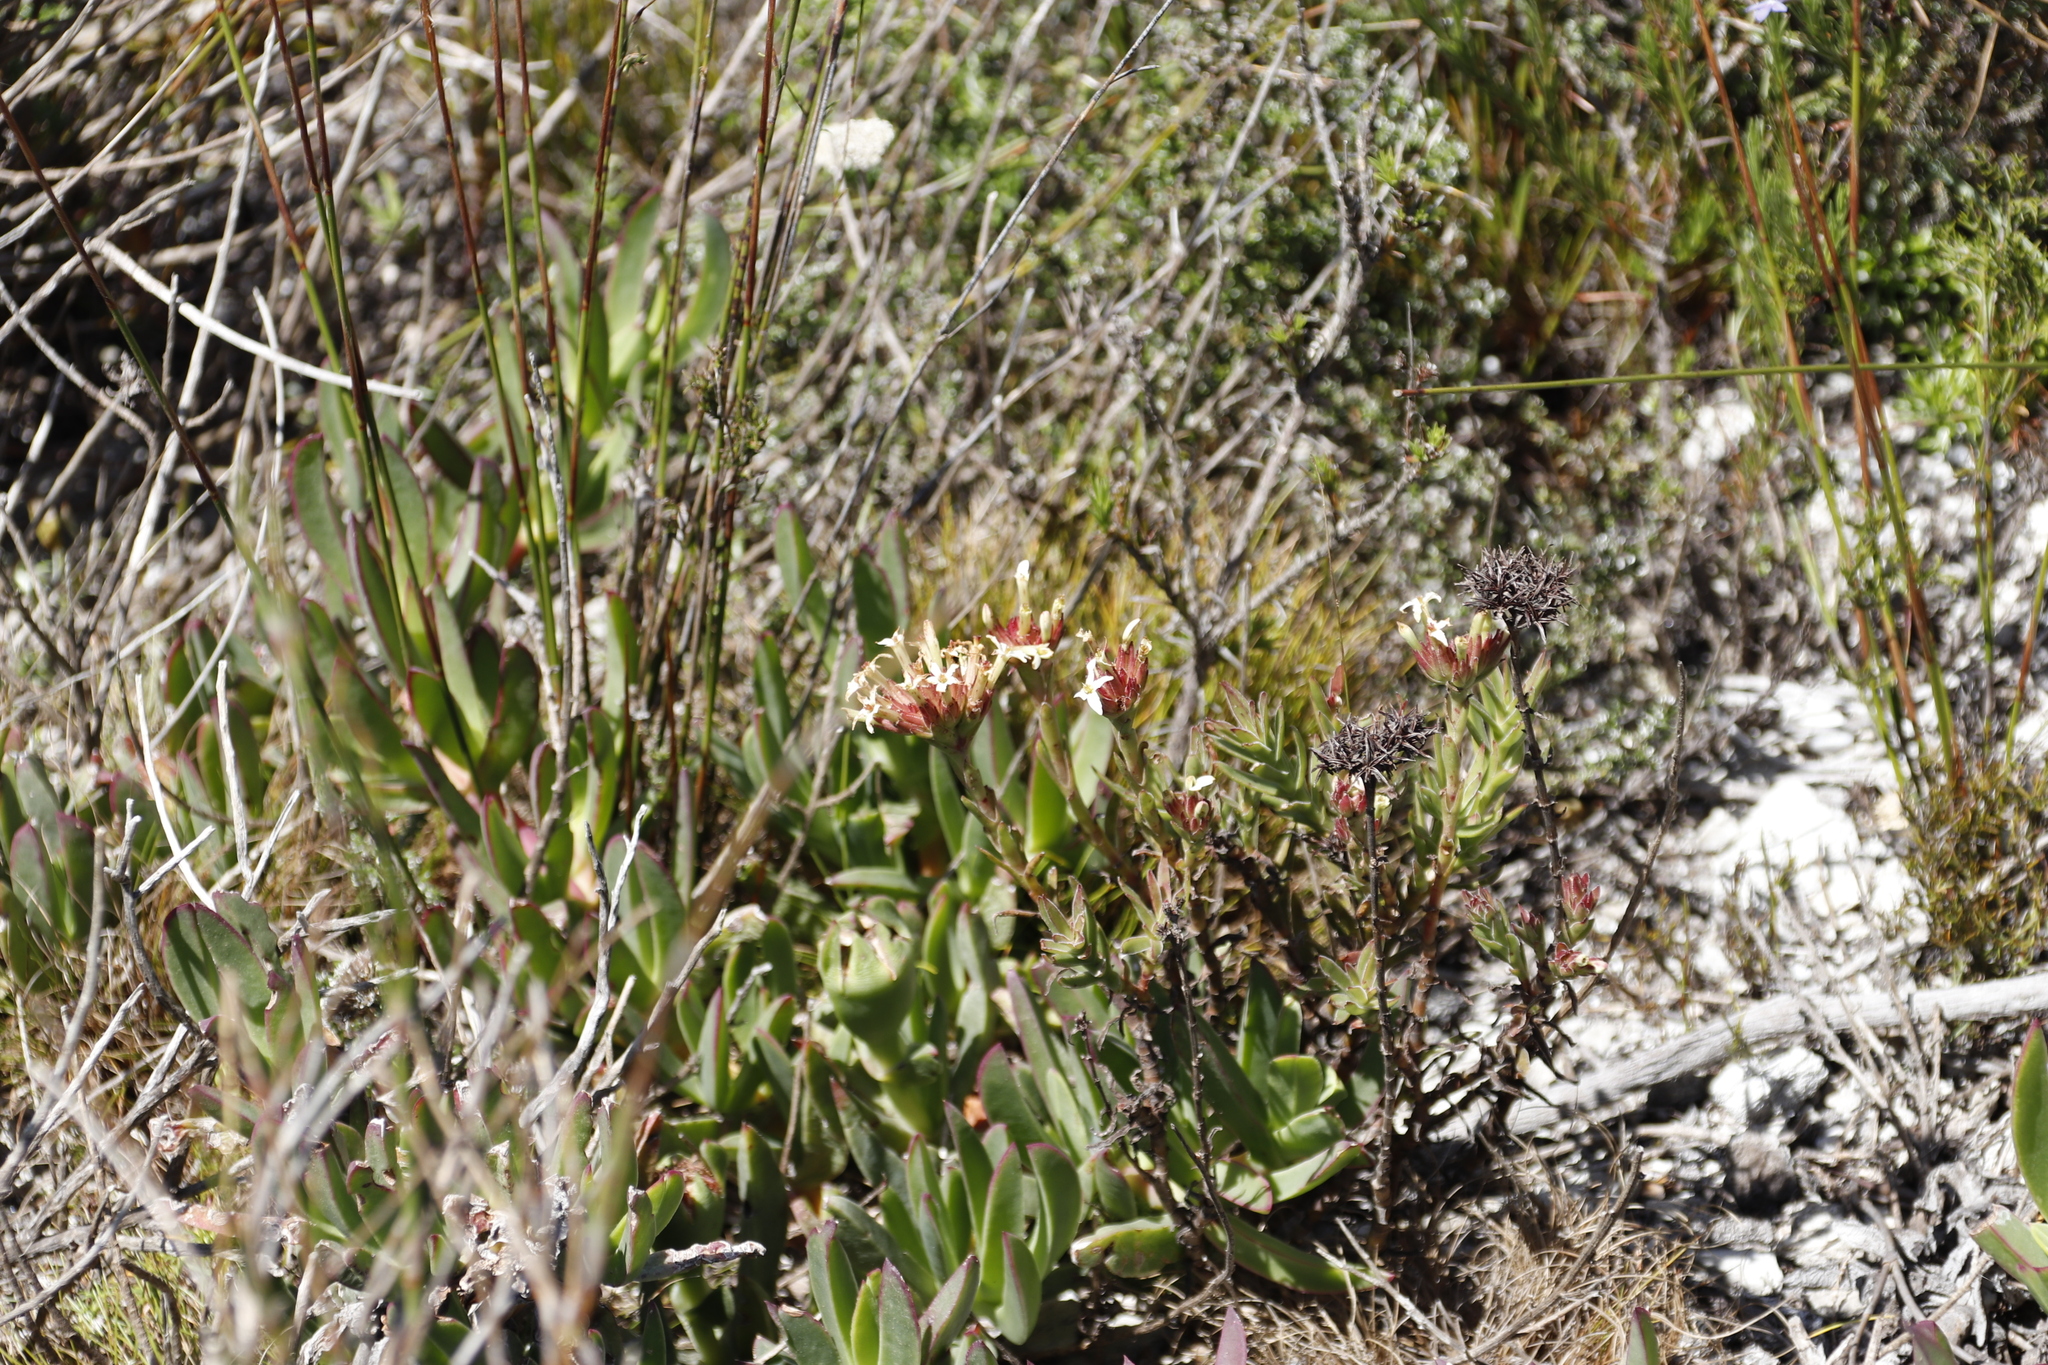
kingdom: Plantae
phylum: Tracheophyta
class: Magnoliopsida
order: Saxifragales
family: Crassulaceae
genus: Crassula
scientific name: Crassula fascicularis
